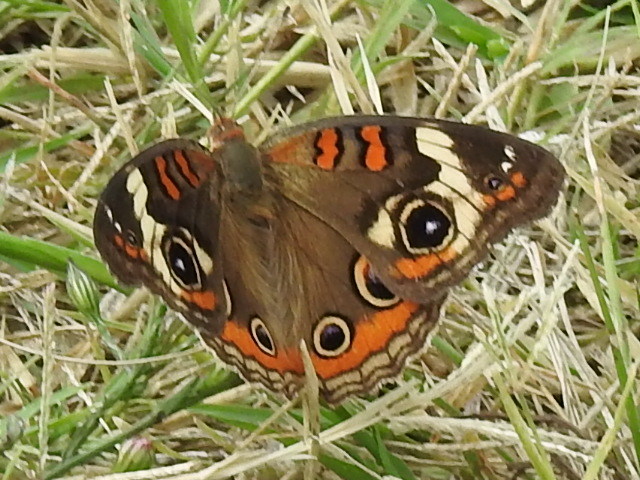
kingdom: Animalia
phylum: Arthropoda
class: Insecta
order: Lepidoptera
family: Nymphalidae
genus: Junonia
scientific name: Junonia coenia
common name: Common buckeye
